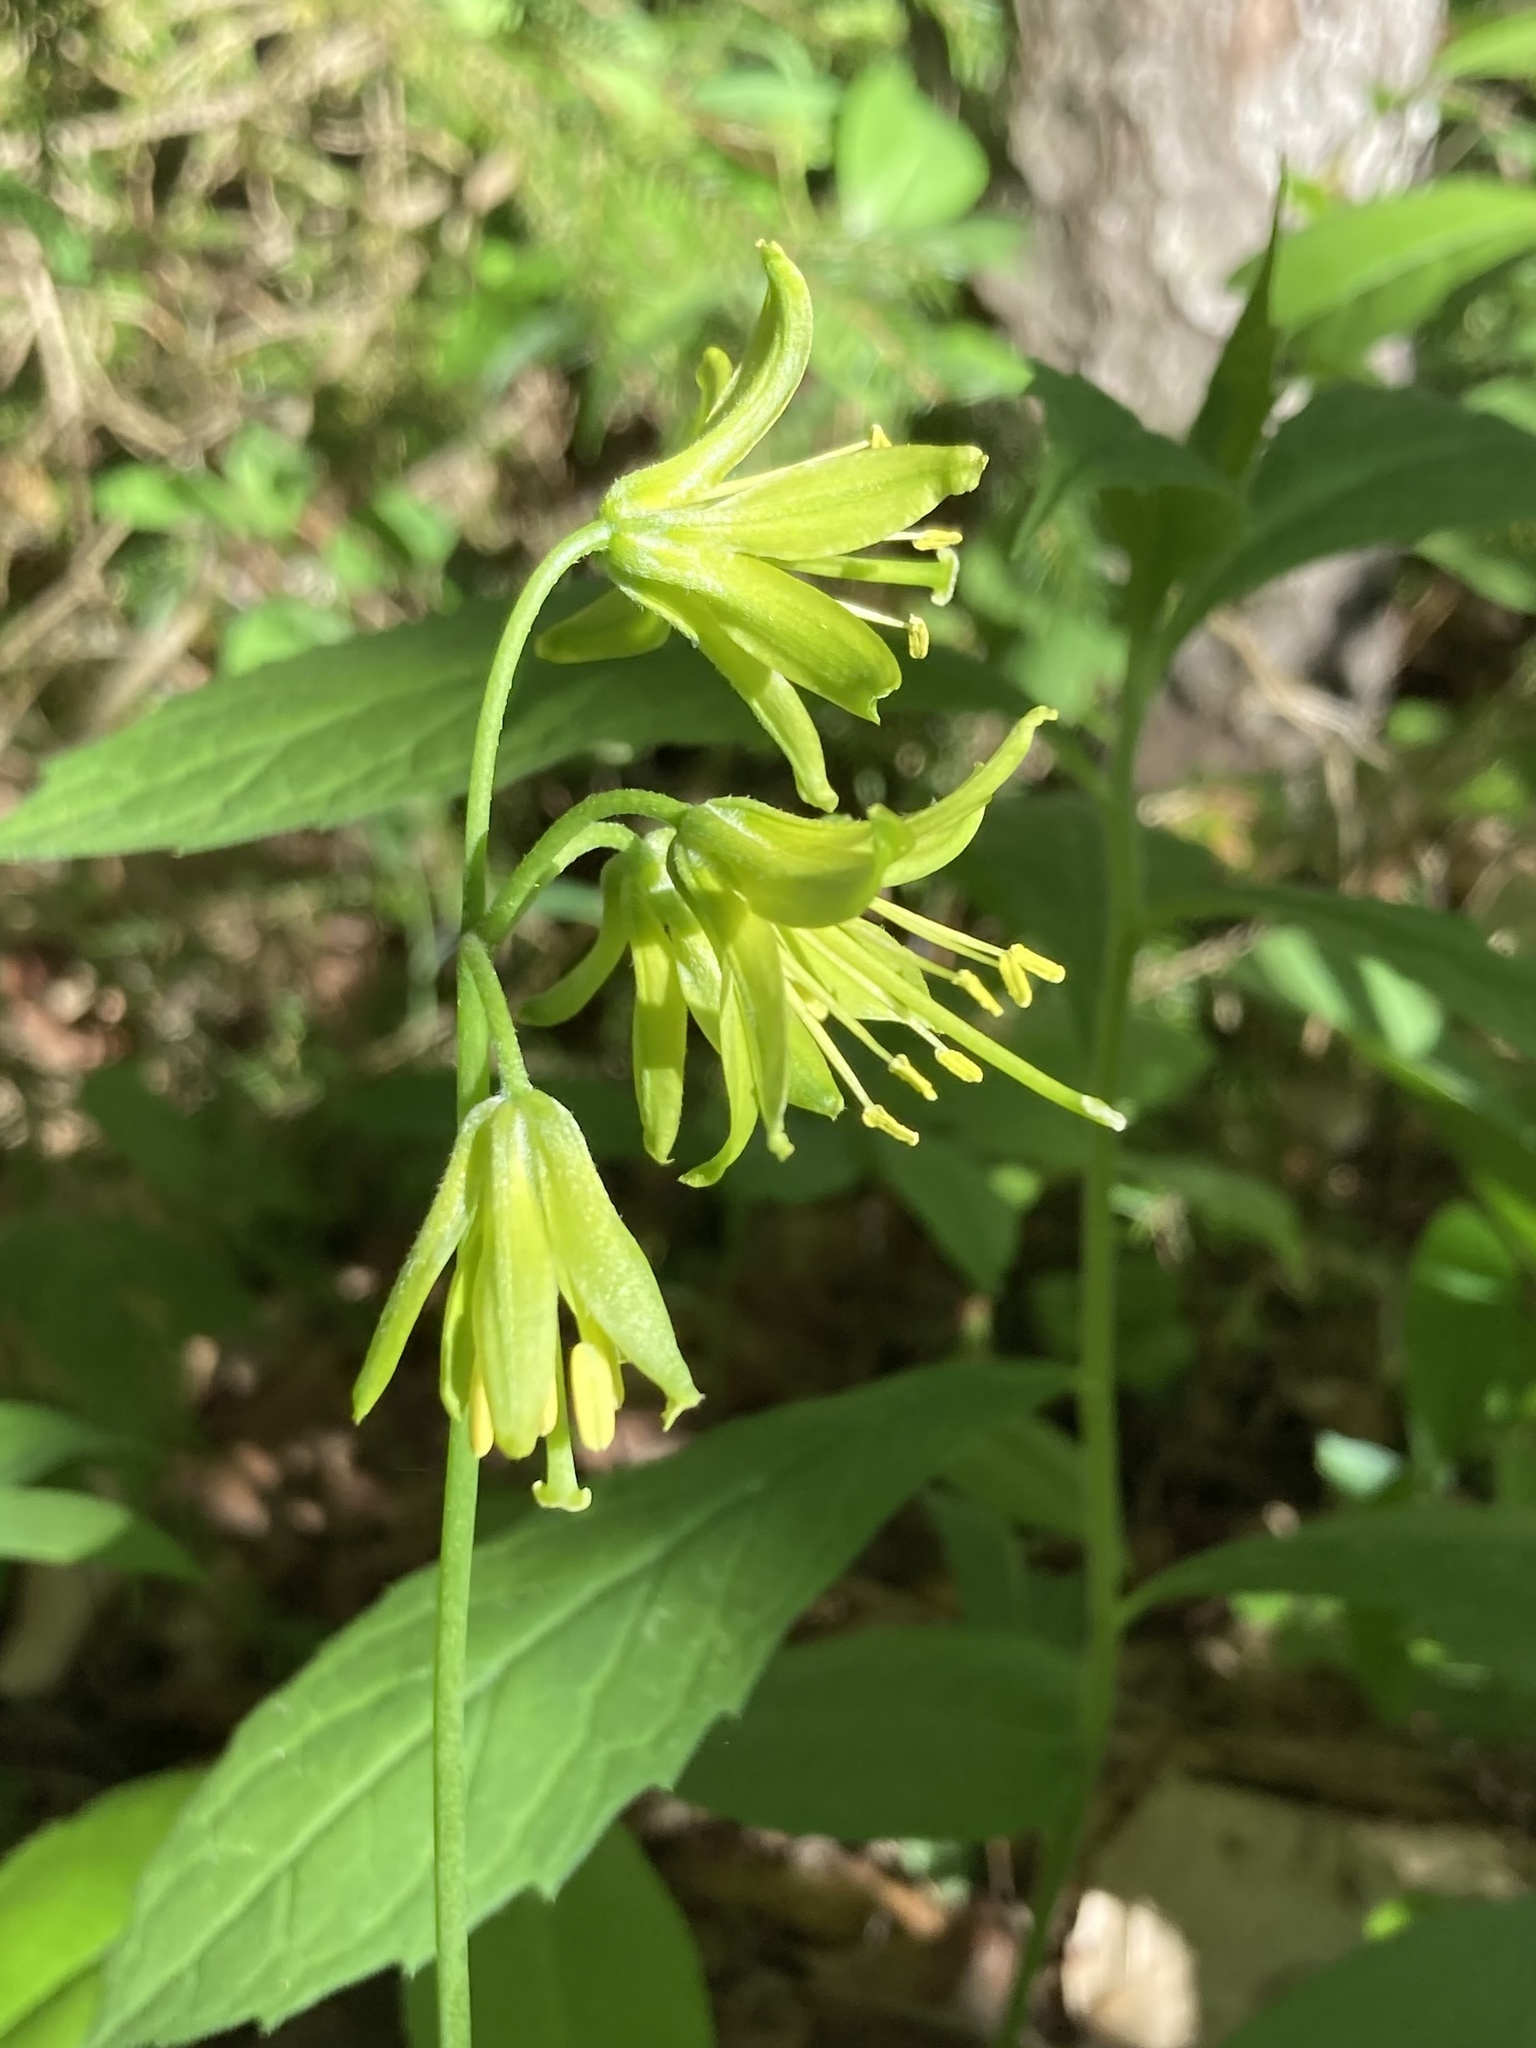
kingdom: Plantae
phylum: Tracheophyta
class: Liliopsida
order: Liliales
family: Liliaceae
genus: Clintonia
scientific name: Clintonia borealis
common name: Yellow clintonia
